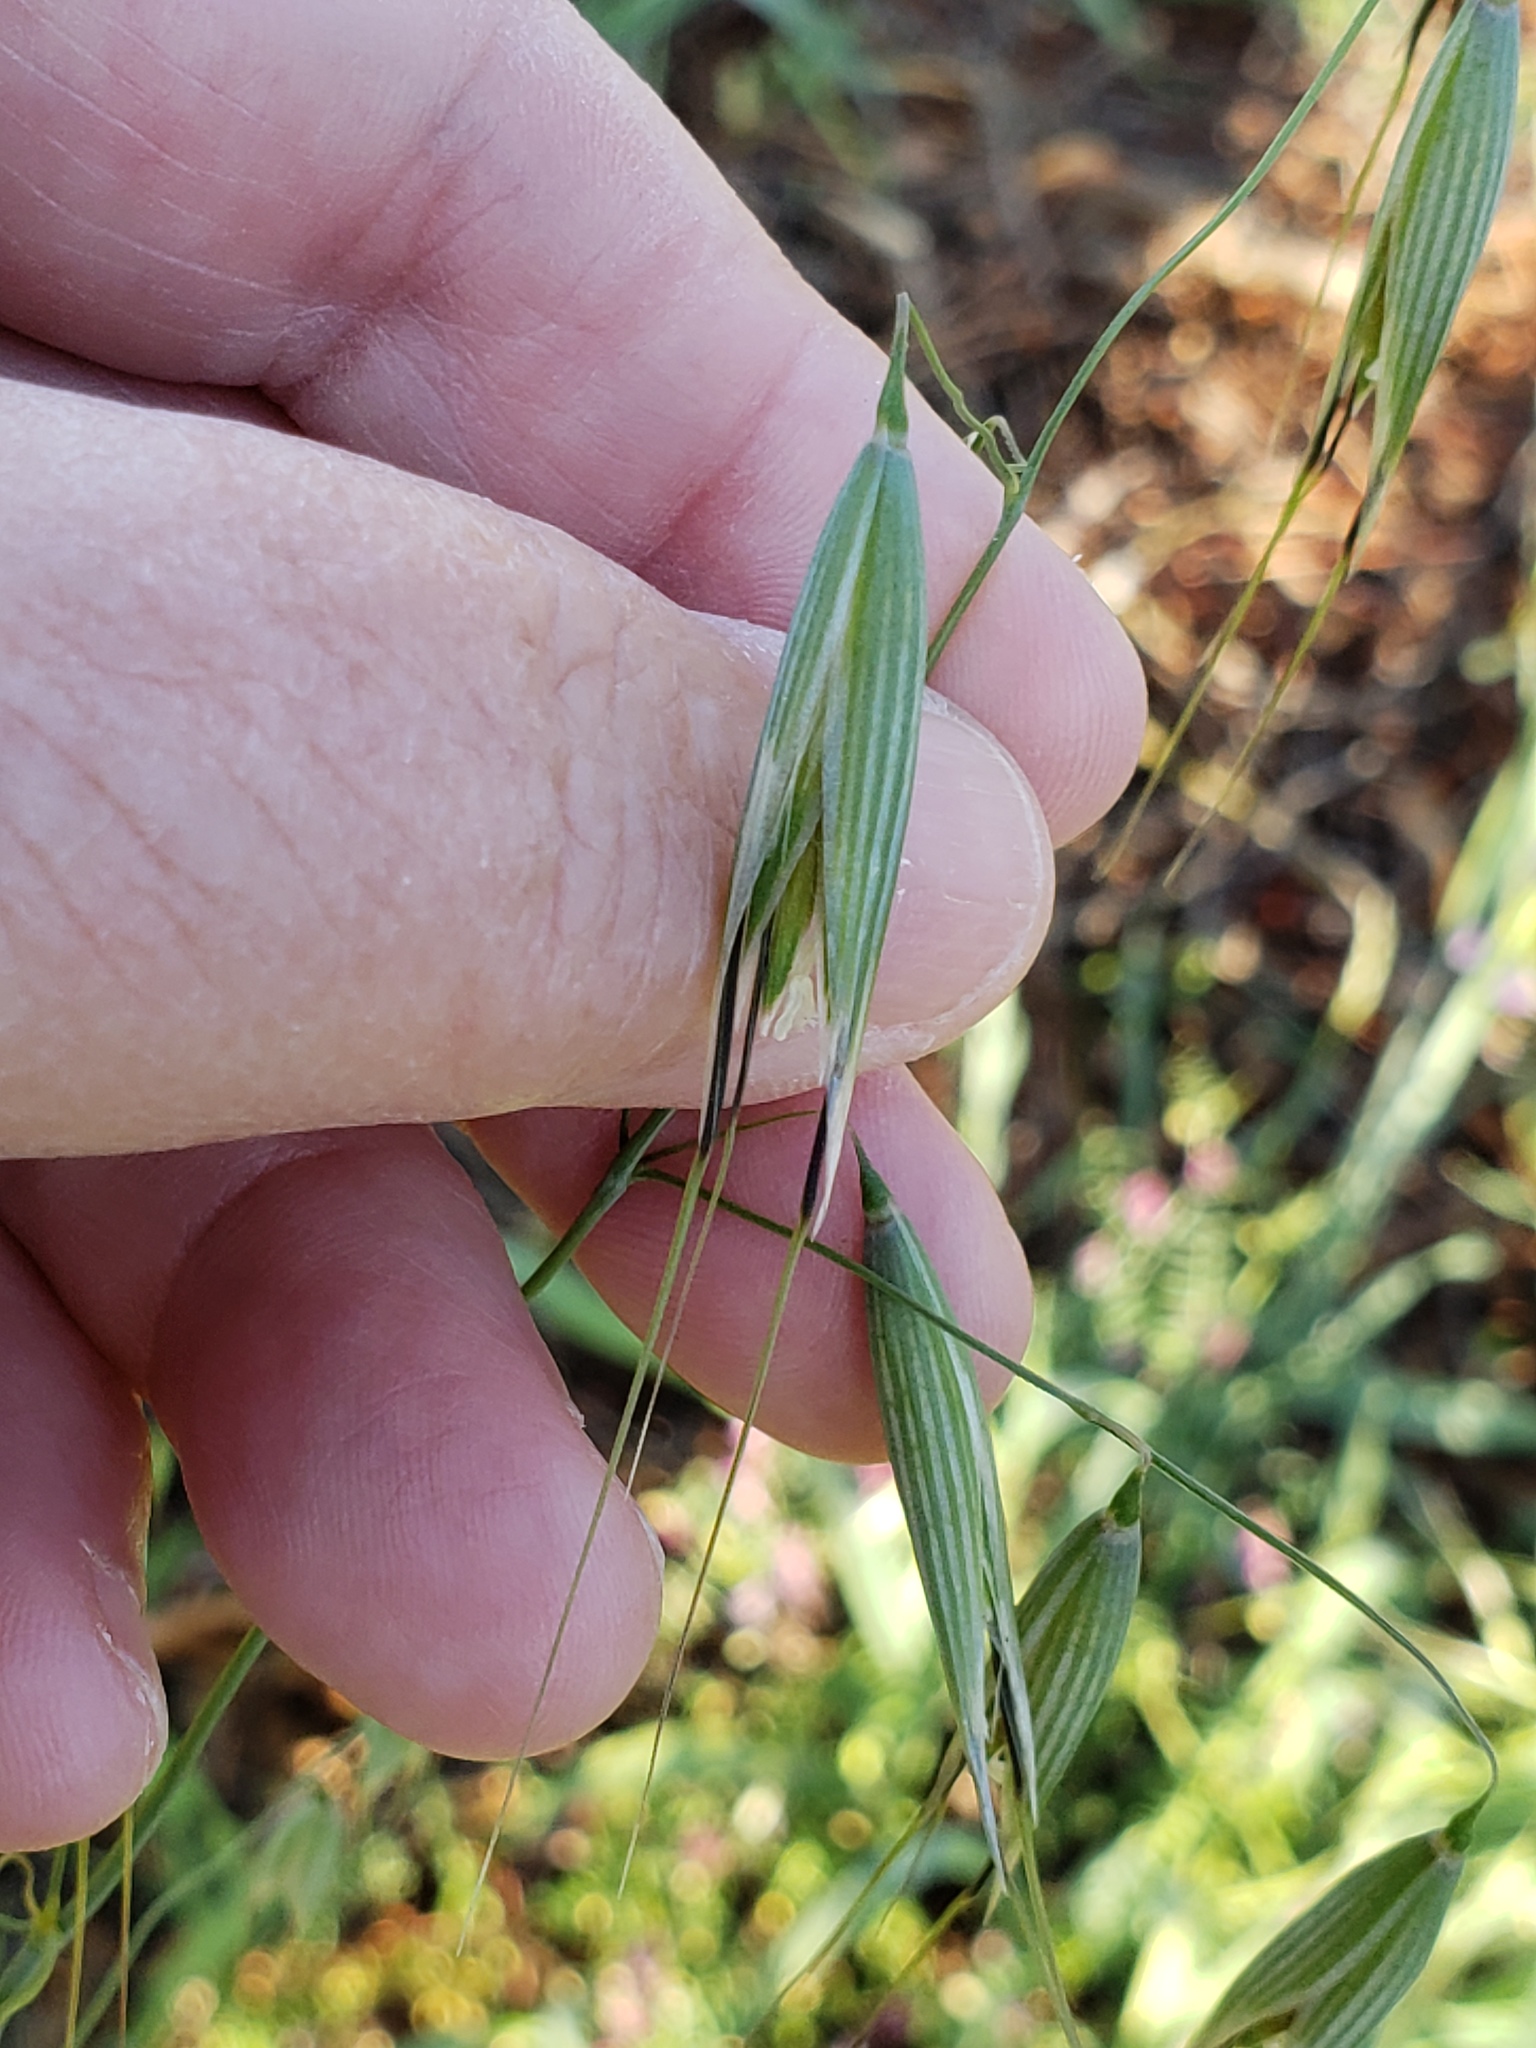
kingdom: Plantae
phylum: Tracheophyta
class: Liliopsida
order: Poales
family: Poaceae
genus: Avena
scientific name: Avena fatua
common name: Wild oat
